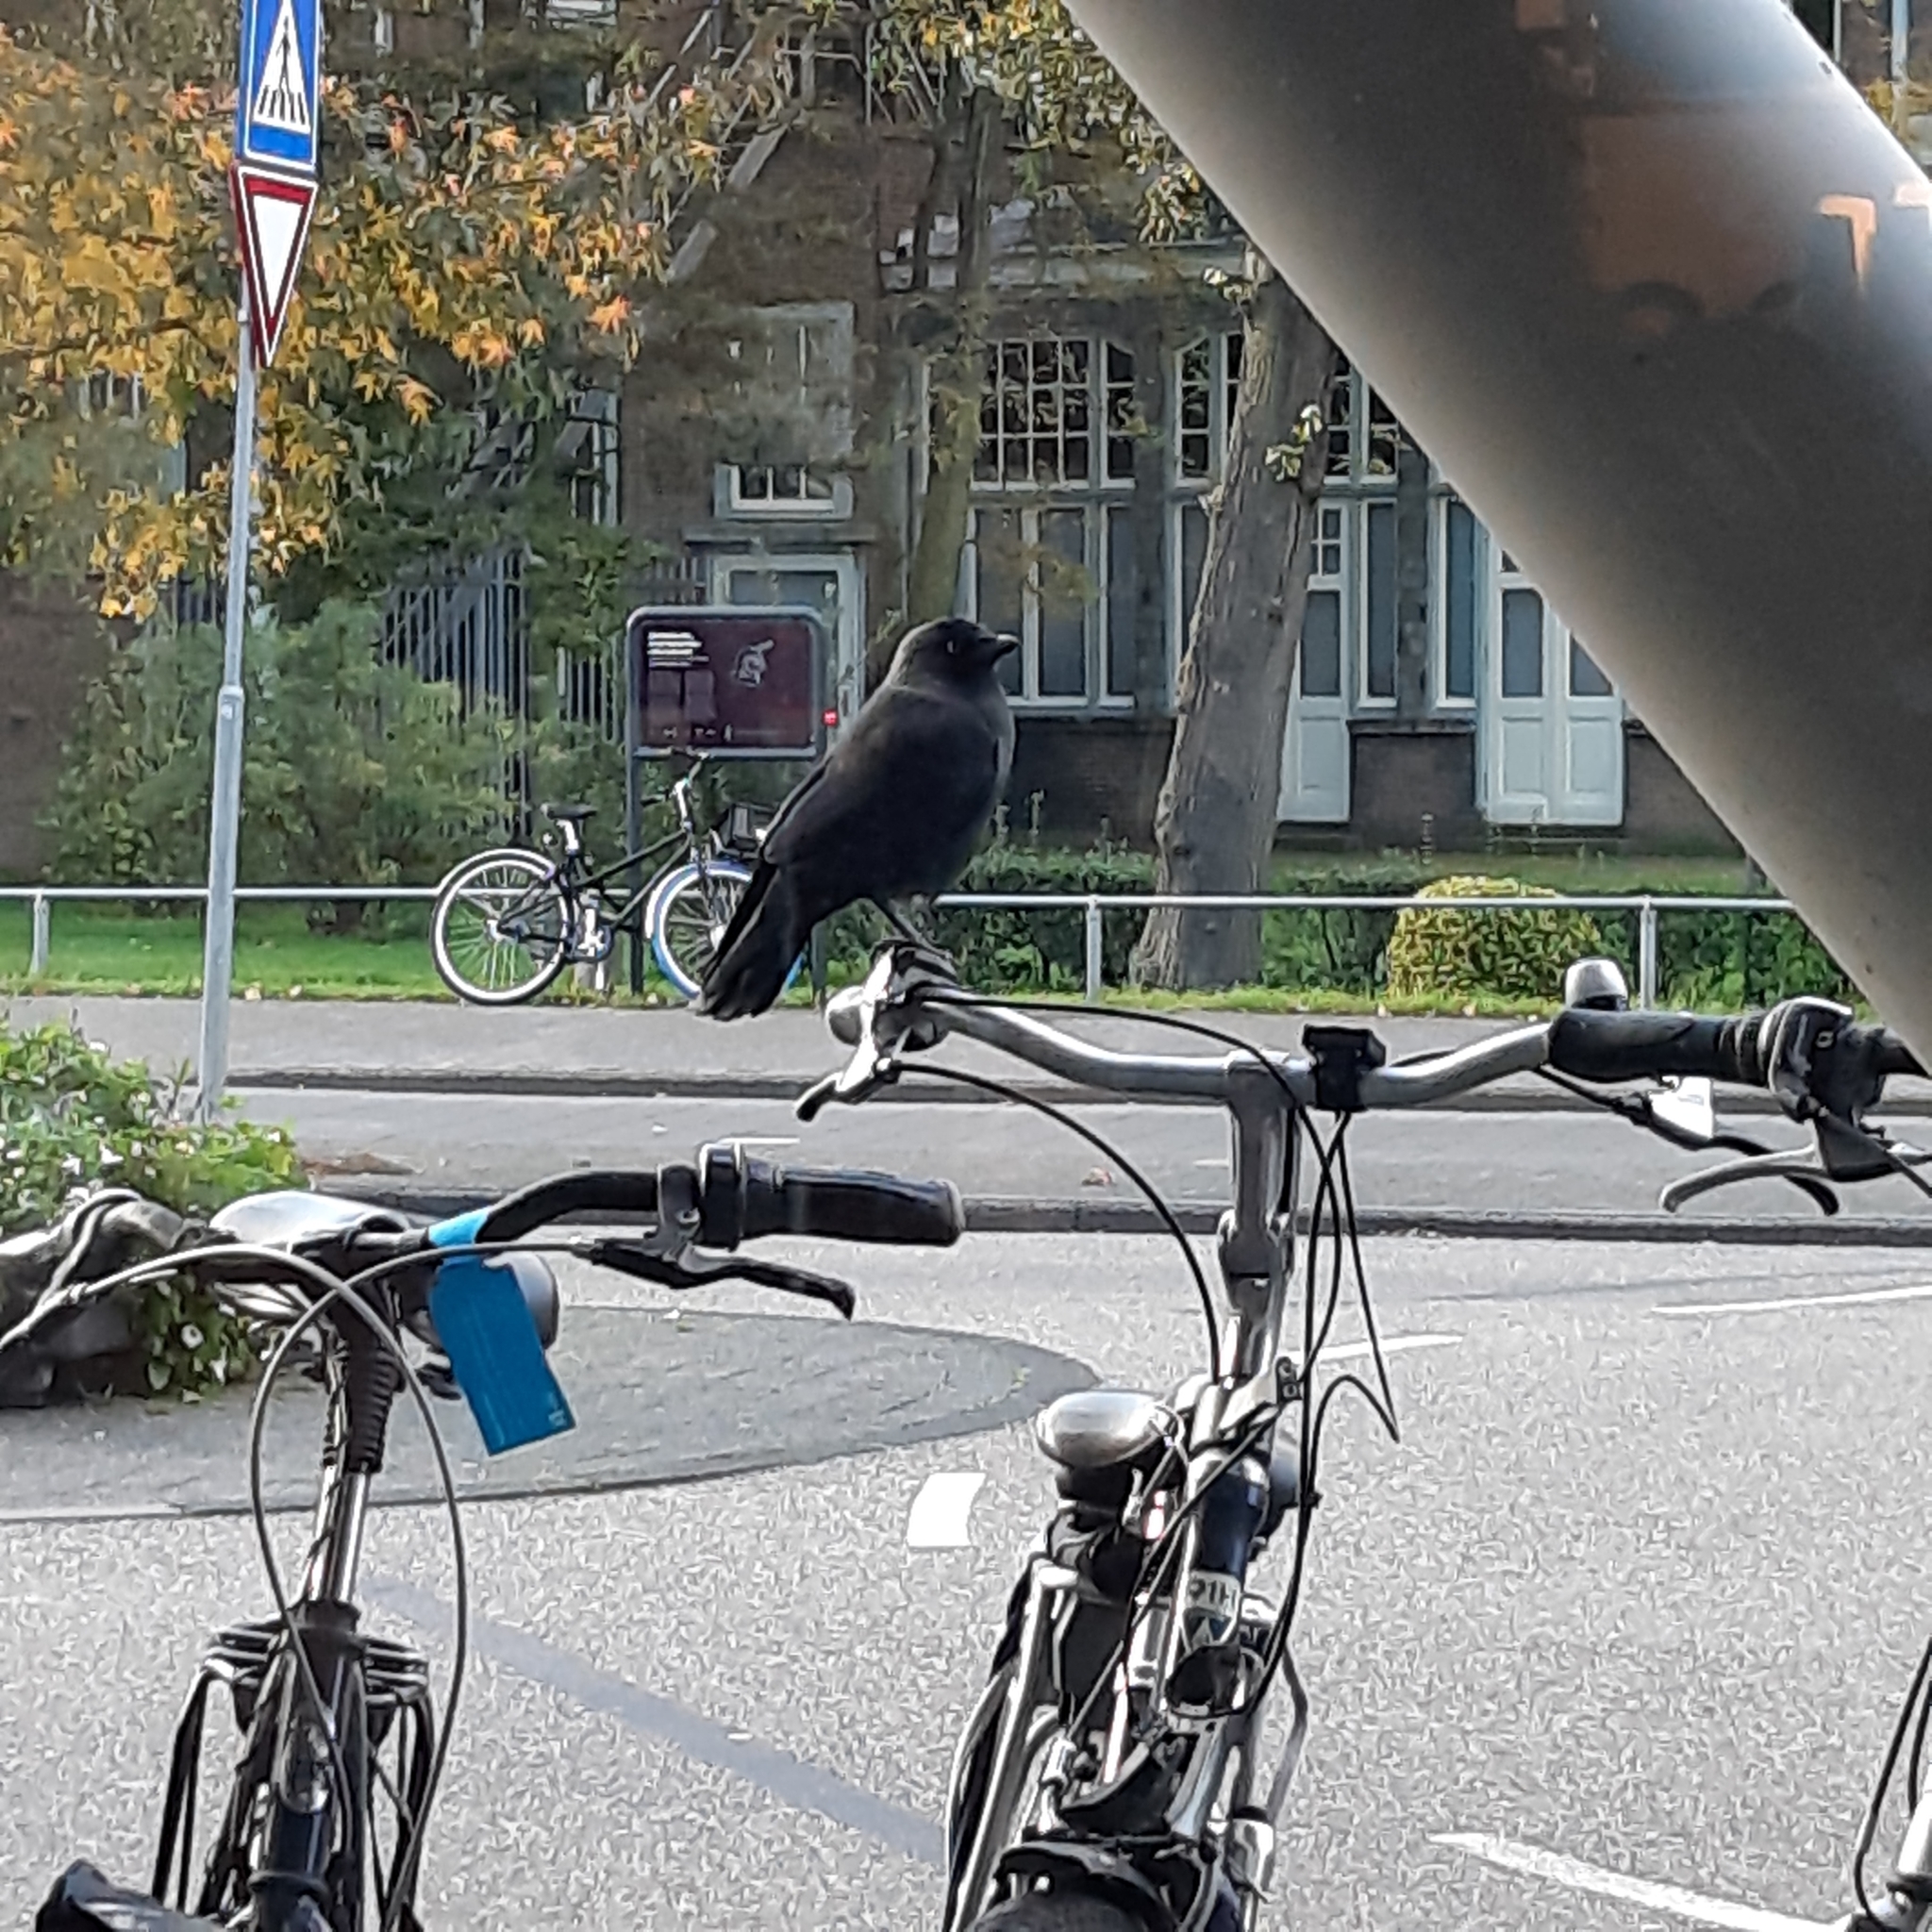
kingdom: Animalia
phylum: Chordata
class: Aves
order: Passeriformes
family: Corvidae
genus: Coloeus
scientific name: Coloeus monedula
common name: Western jackdaw
